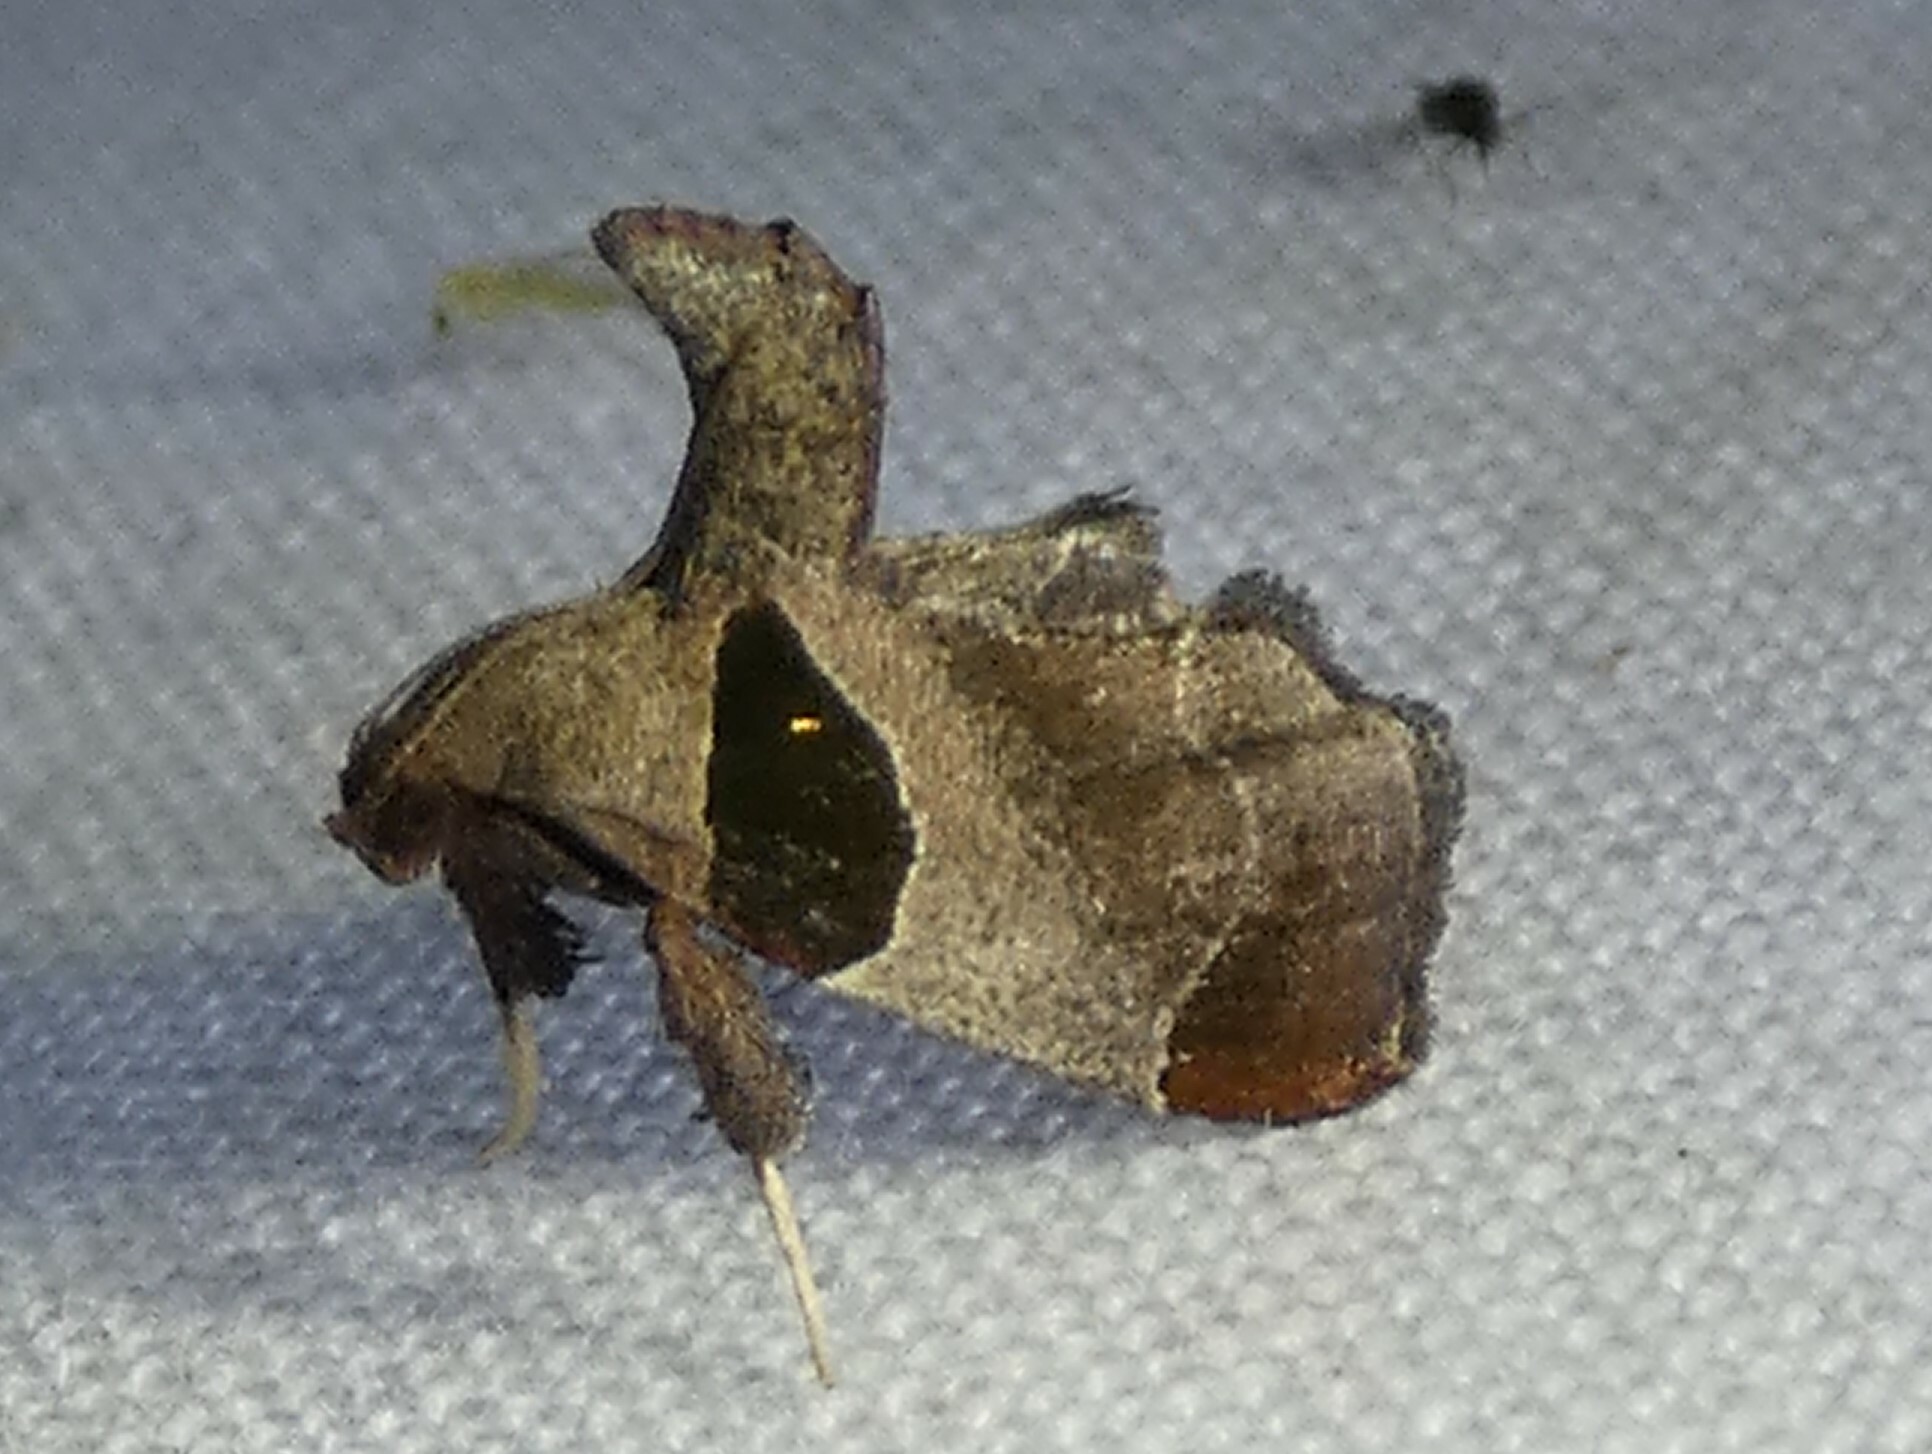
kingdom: Animalia
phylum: Arthropoda
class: Insecta
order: Lepidoptera
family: Pyralidae
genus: Tosale
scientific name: Tosale oviplagalis
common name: Dimorphic tosale moth
